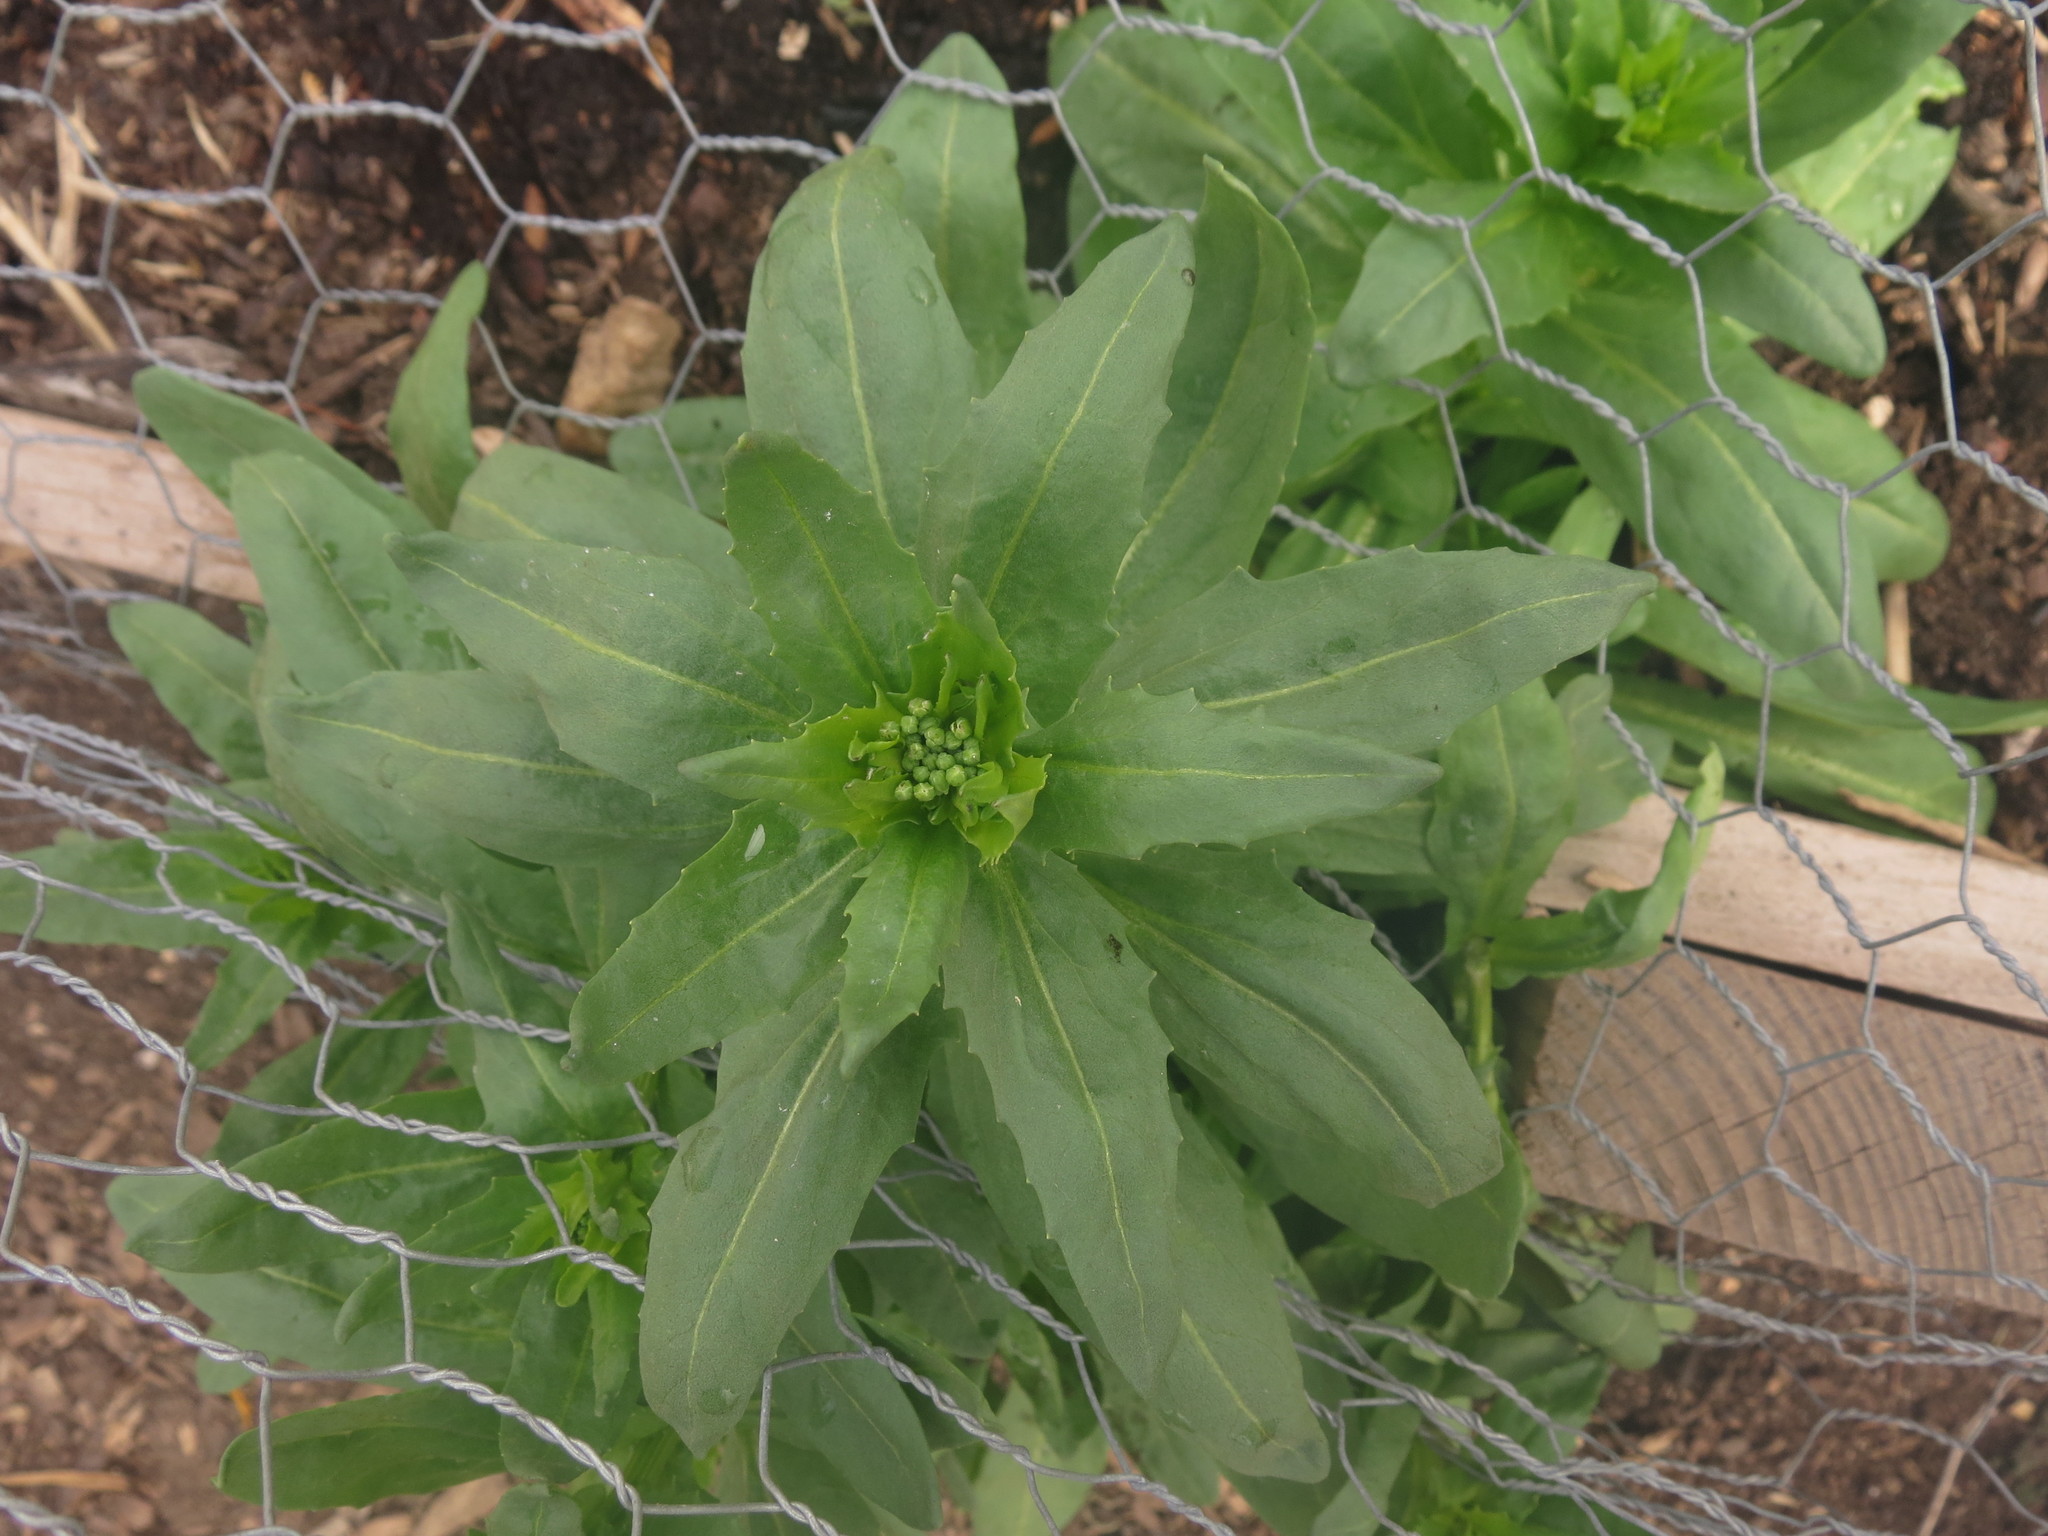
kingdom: Plantae
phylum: Tracheophyta
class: Magnoliopsida
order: Brassicales
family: Brassicaceae
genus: Thlaspi
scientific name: Thlaspi arvense
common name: Field pennycress
